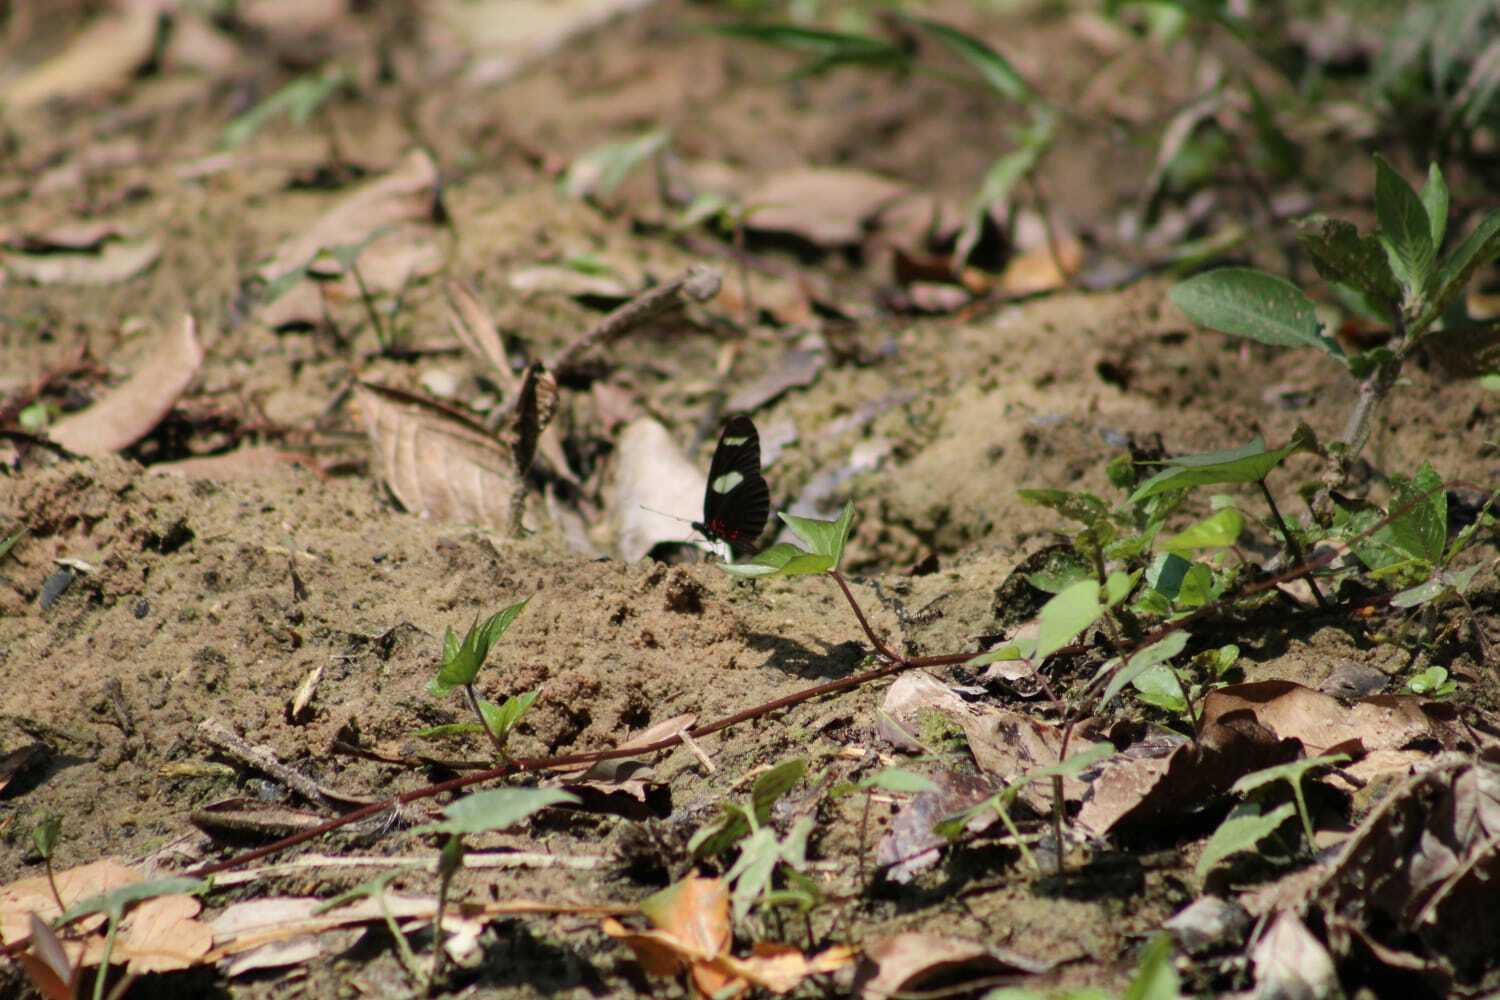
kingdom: Animalia
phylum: Arthropoda
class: Insecta
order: Lepidoptera
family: Nymphalidae
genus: Heliconius
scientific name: Heliconius sara
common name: Sara longwing
